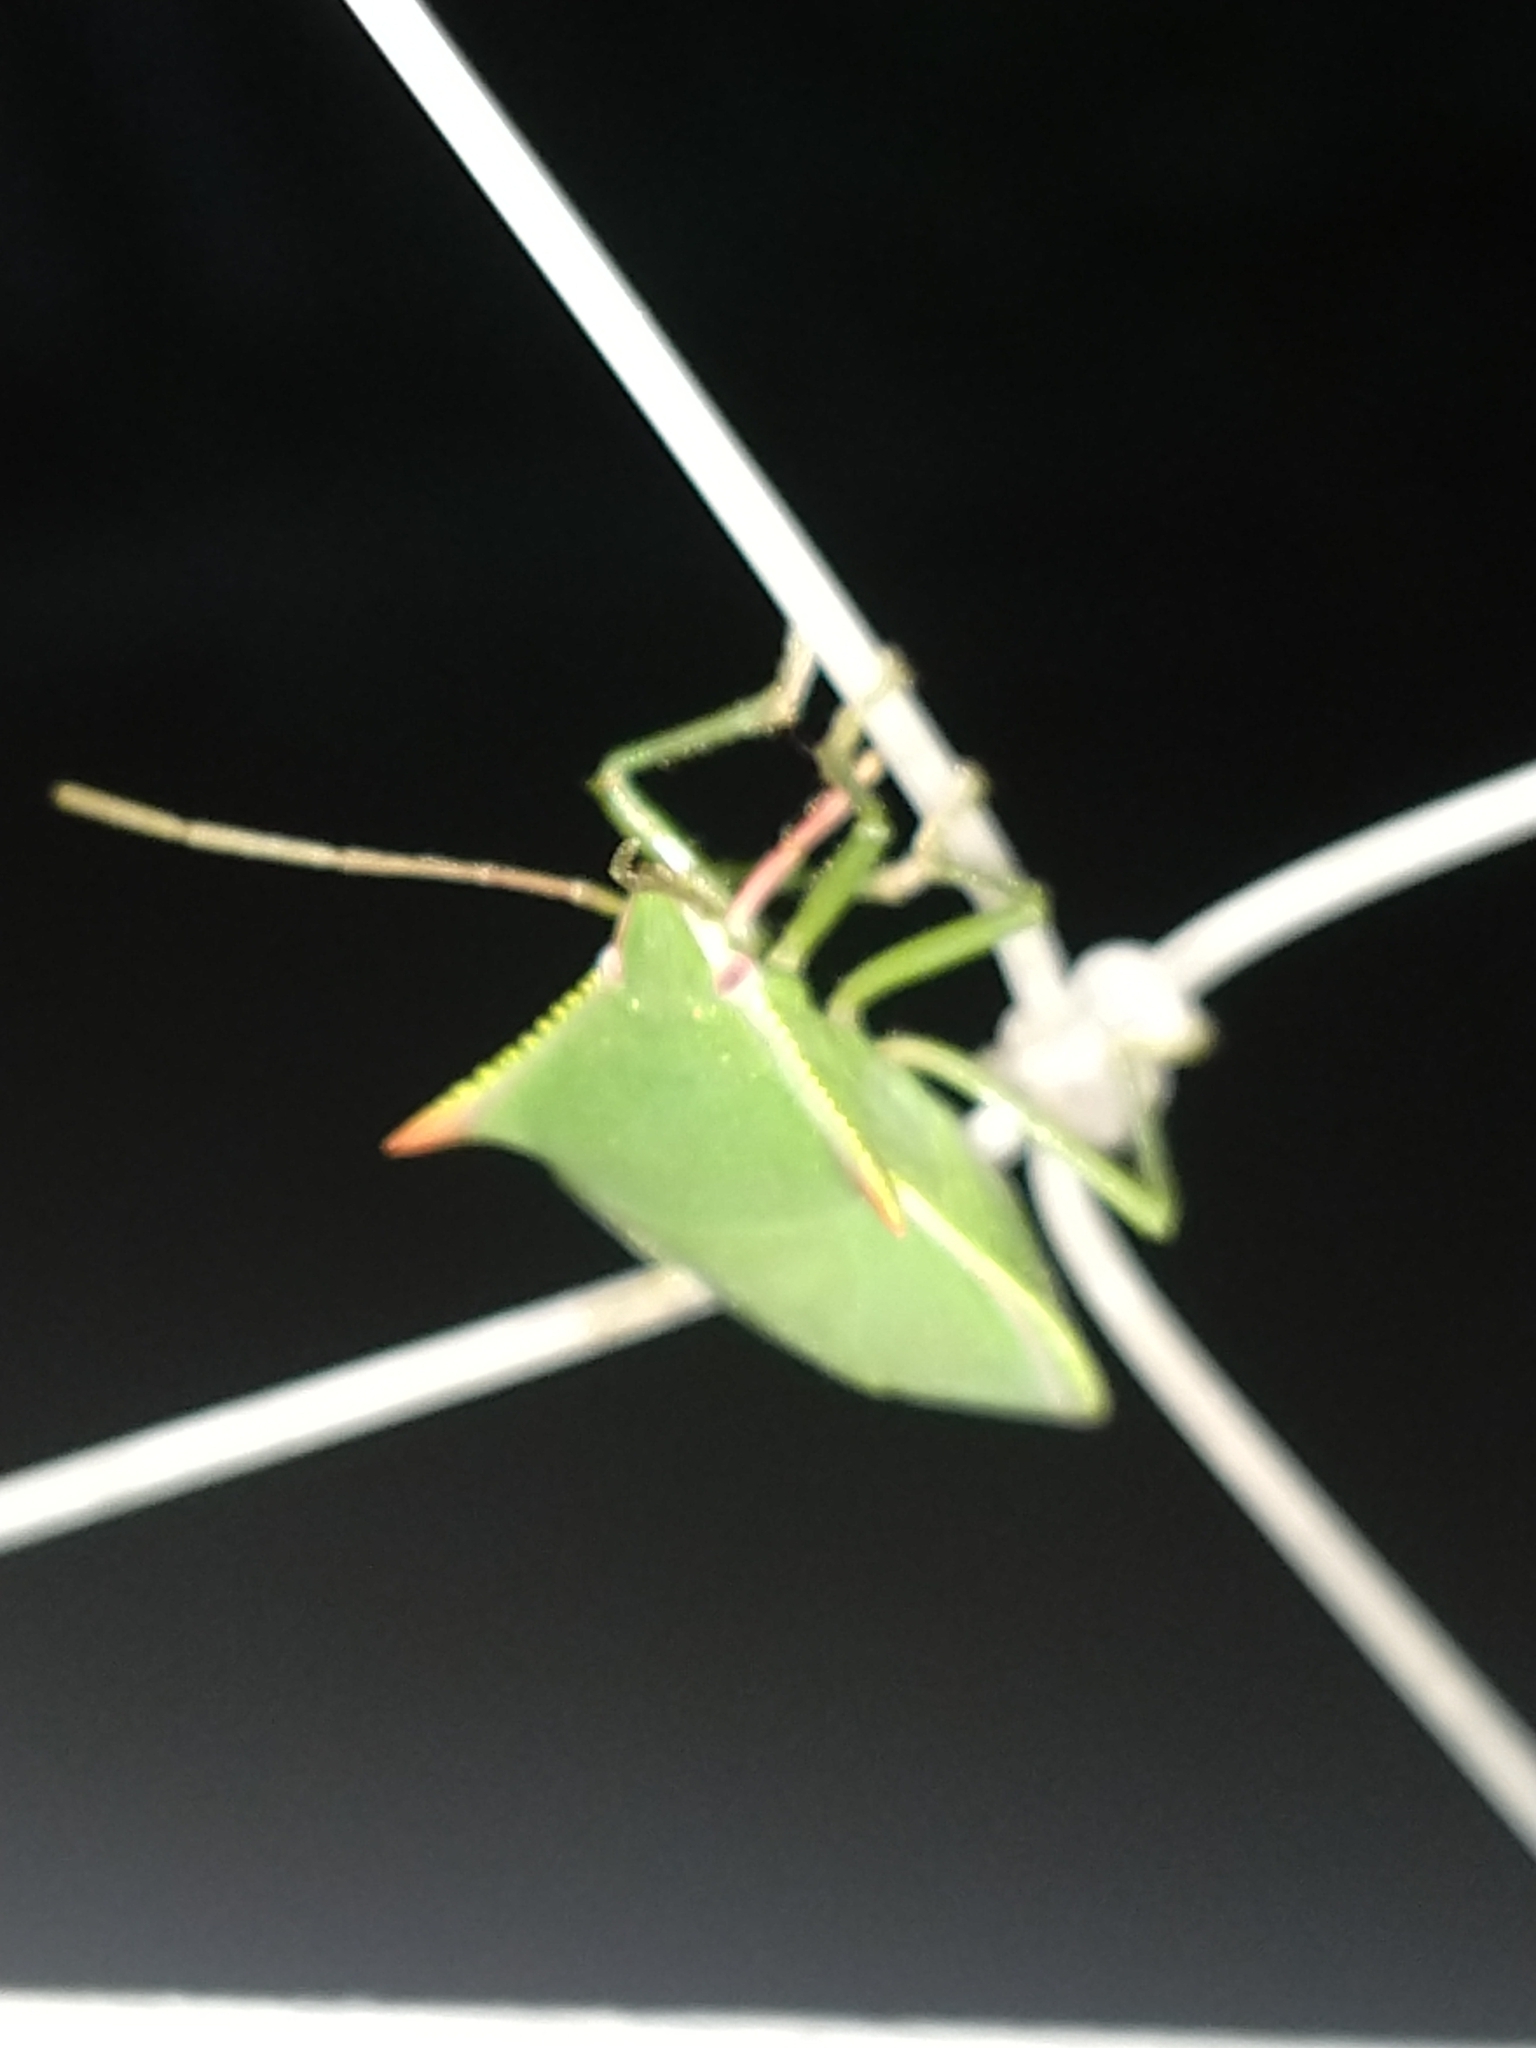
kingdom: Animalia
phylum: Arthropoda
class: Insecta
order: Hemiptera
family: Pentatomidae
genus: Loxa
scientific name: Loxa deducta
